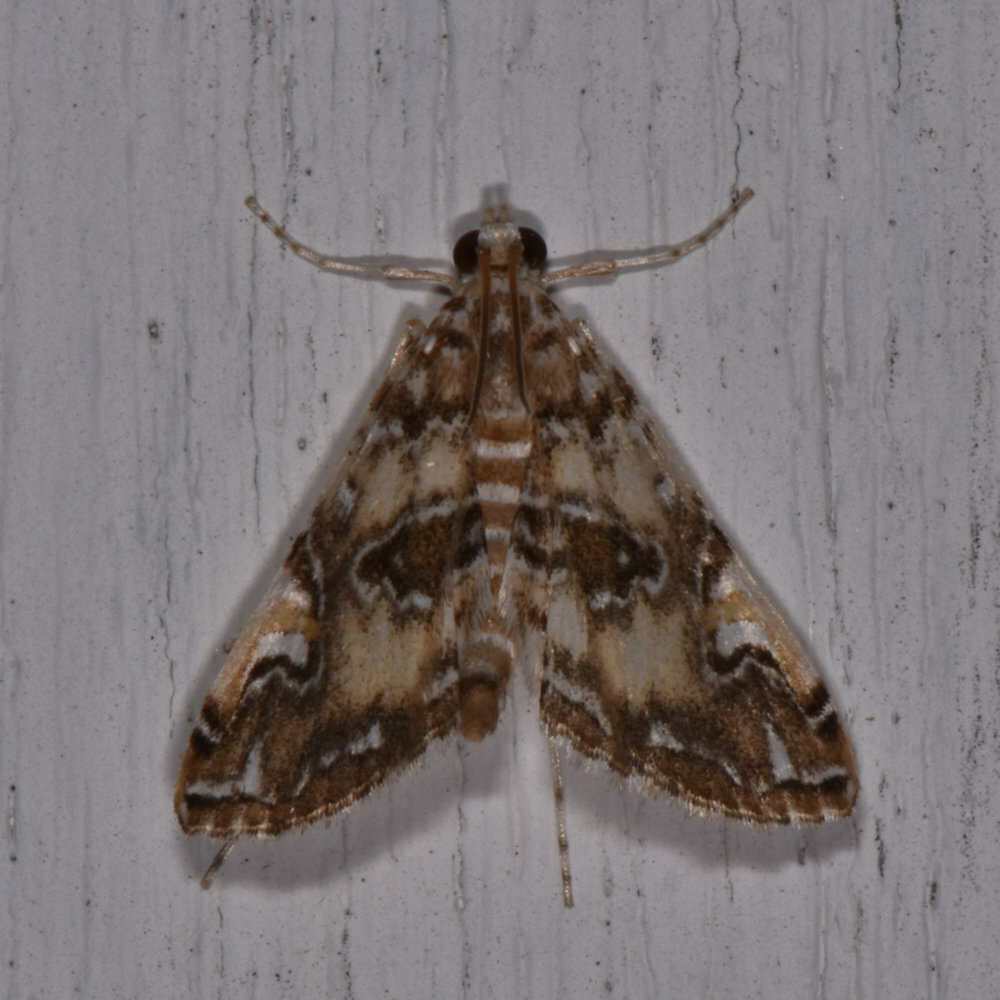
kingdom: Animalia
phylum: Arthropoda
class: Insecta
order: Lepidoptera
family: Crambidae
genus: Elophila
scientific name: Elophila obliteralis
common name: Waterlily leafcutter moth
